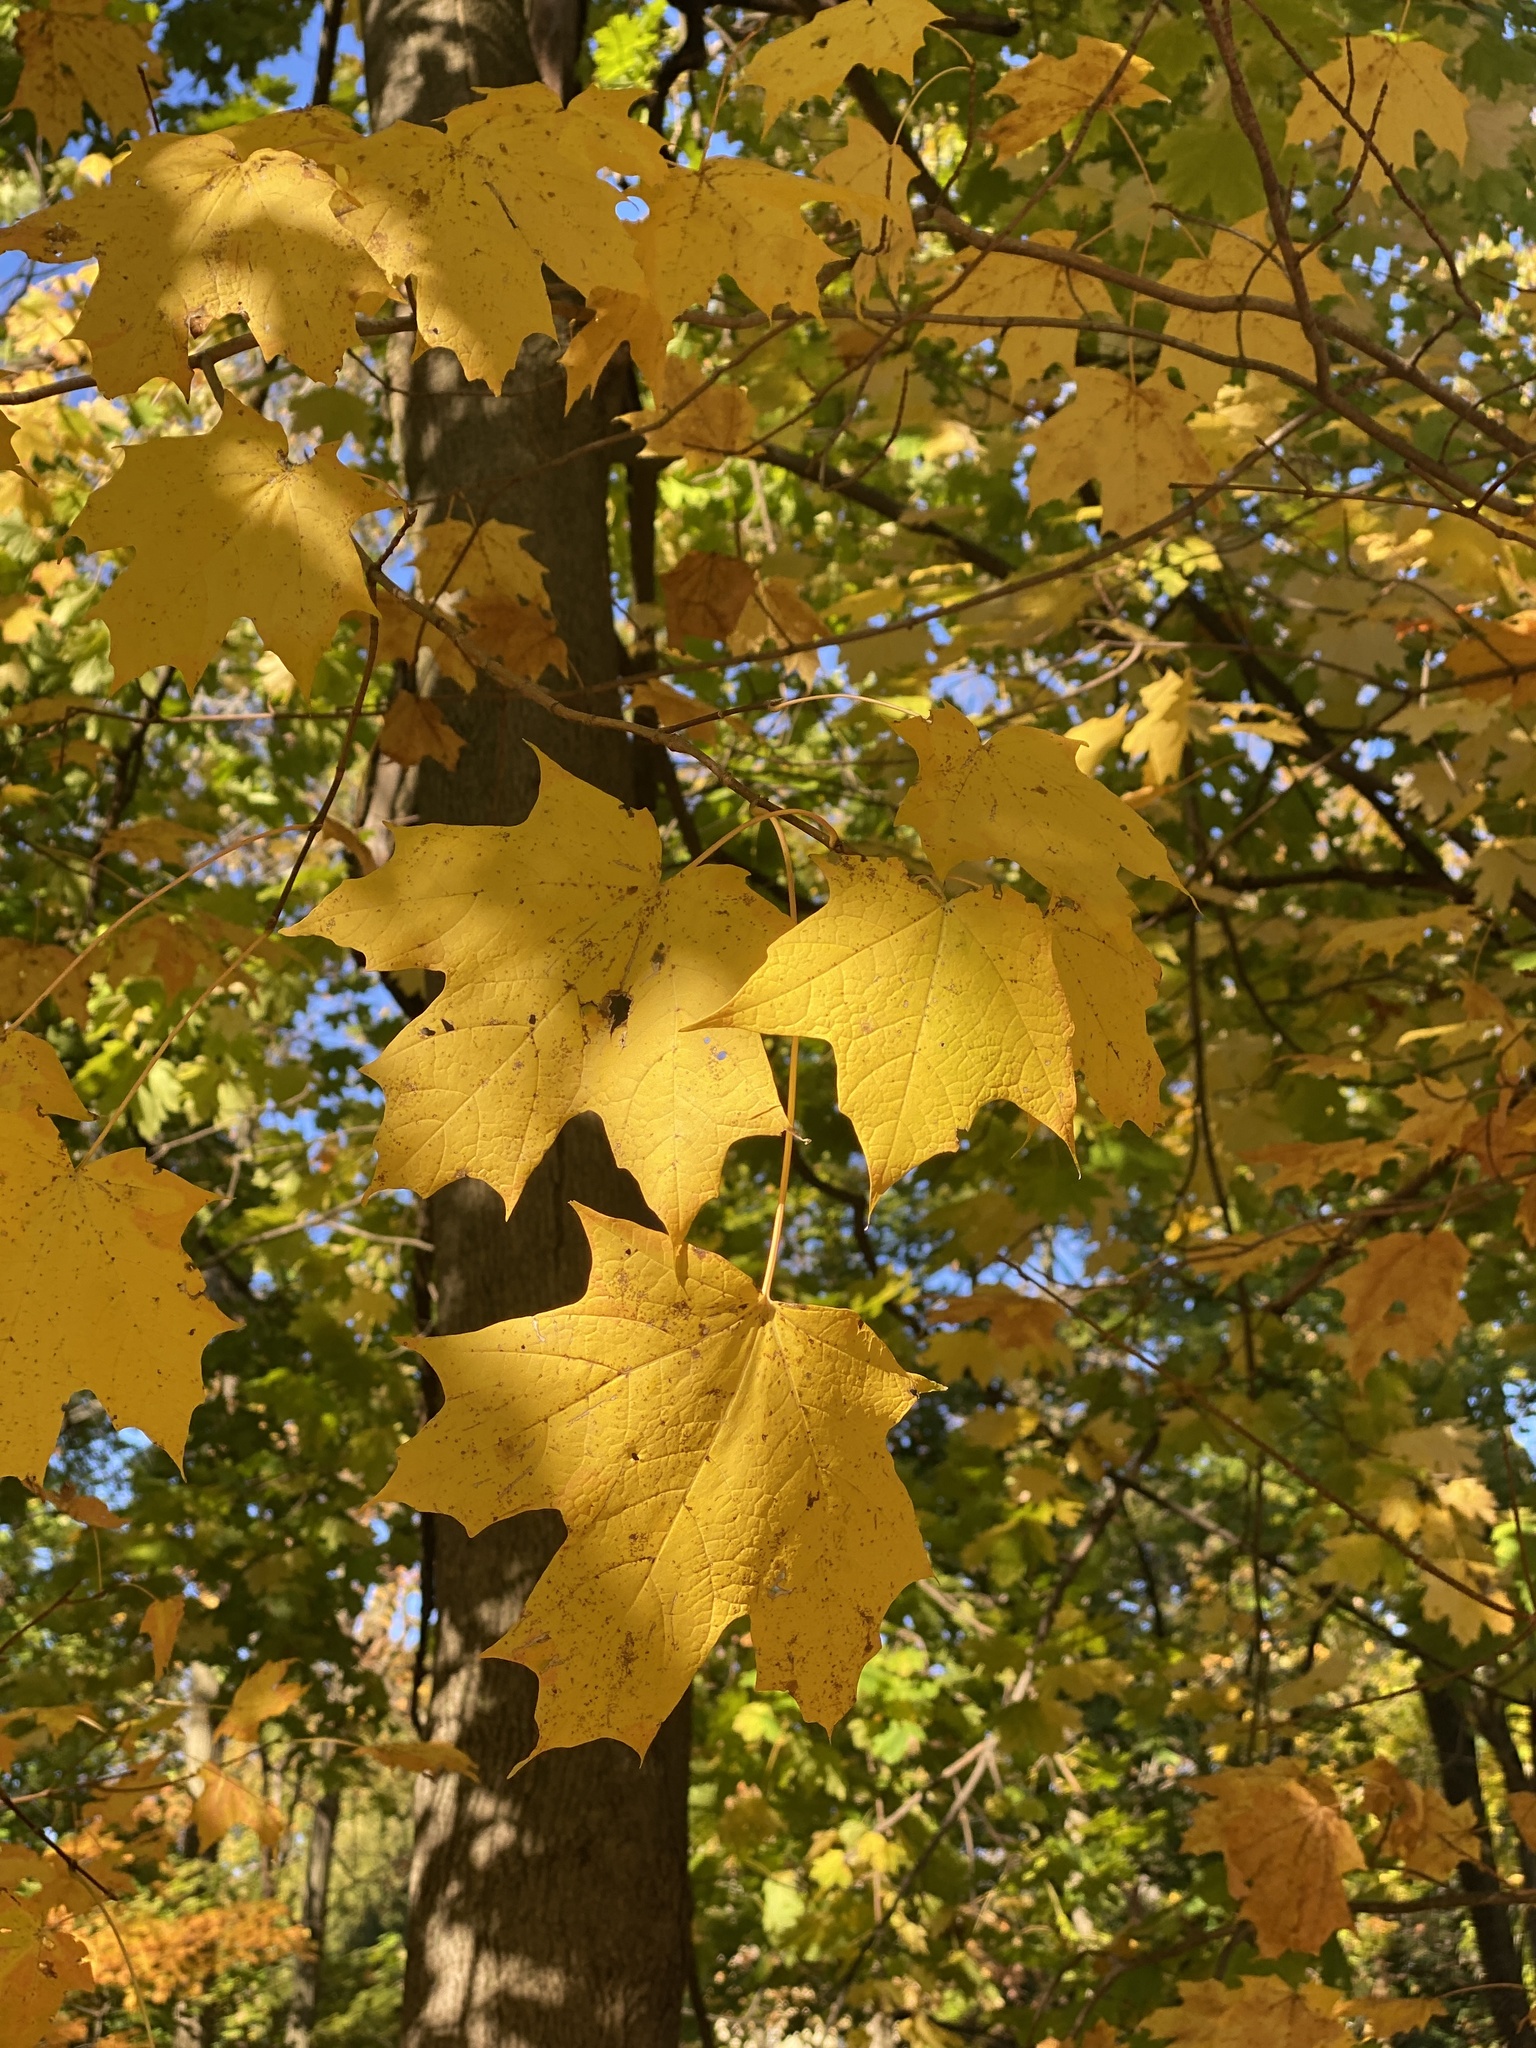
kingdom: Plantae
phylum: Tracheophyta
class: Magnoliopsida
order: Sapindales
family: Sapindaceae
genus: Acer
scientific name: Acer saccharum
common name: Sugar maple
